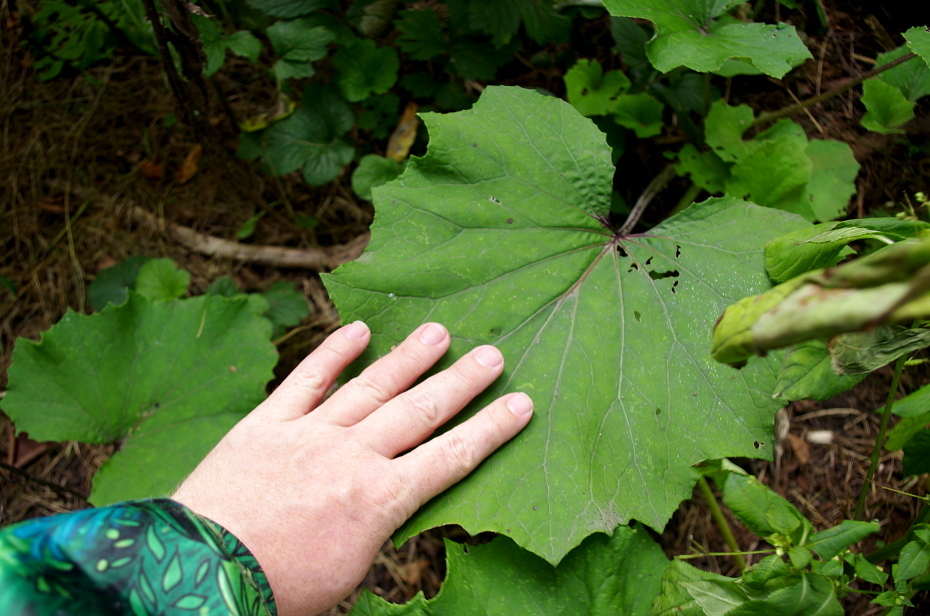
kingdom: Plantae
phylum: Tracheophyta
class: Magnoliopsida
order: Asterales
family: Asteraceae
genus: Tussilago
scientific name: Tussilago farfara
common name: Coltsfoot
